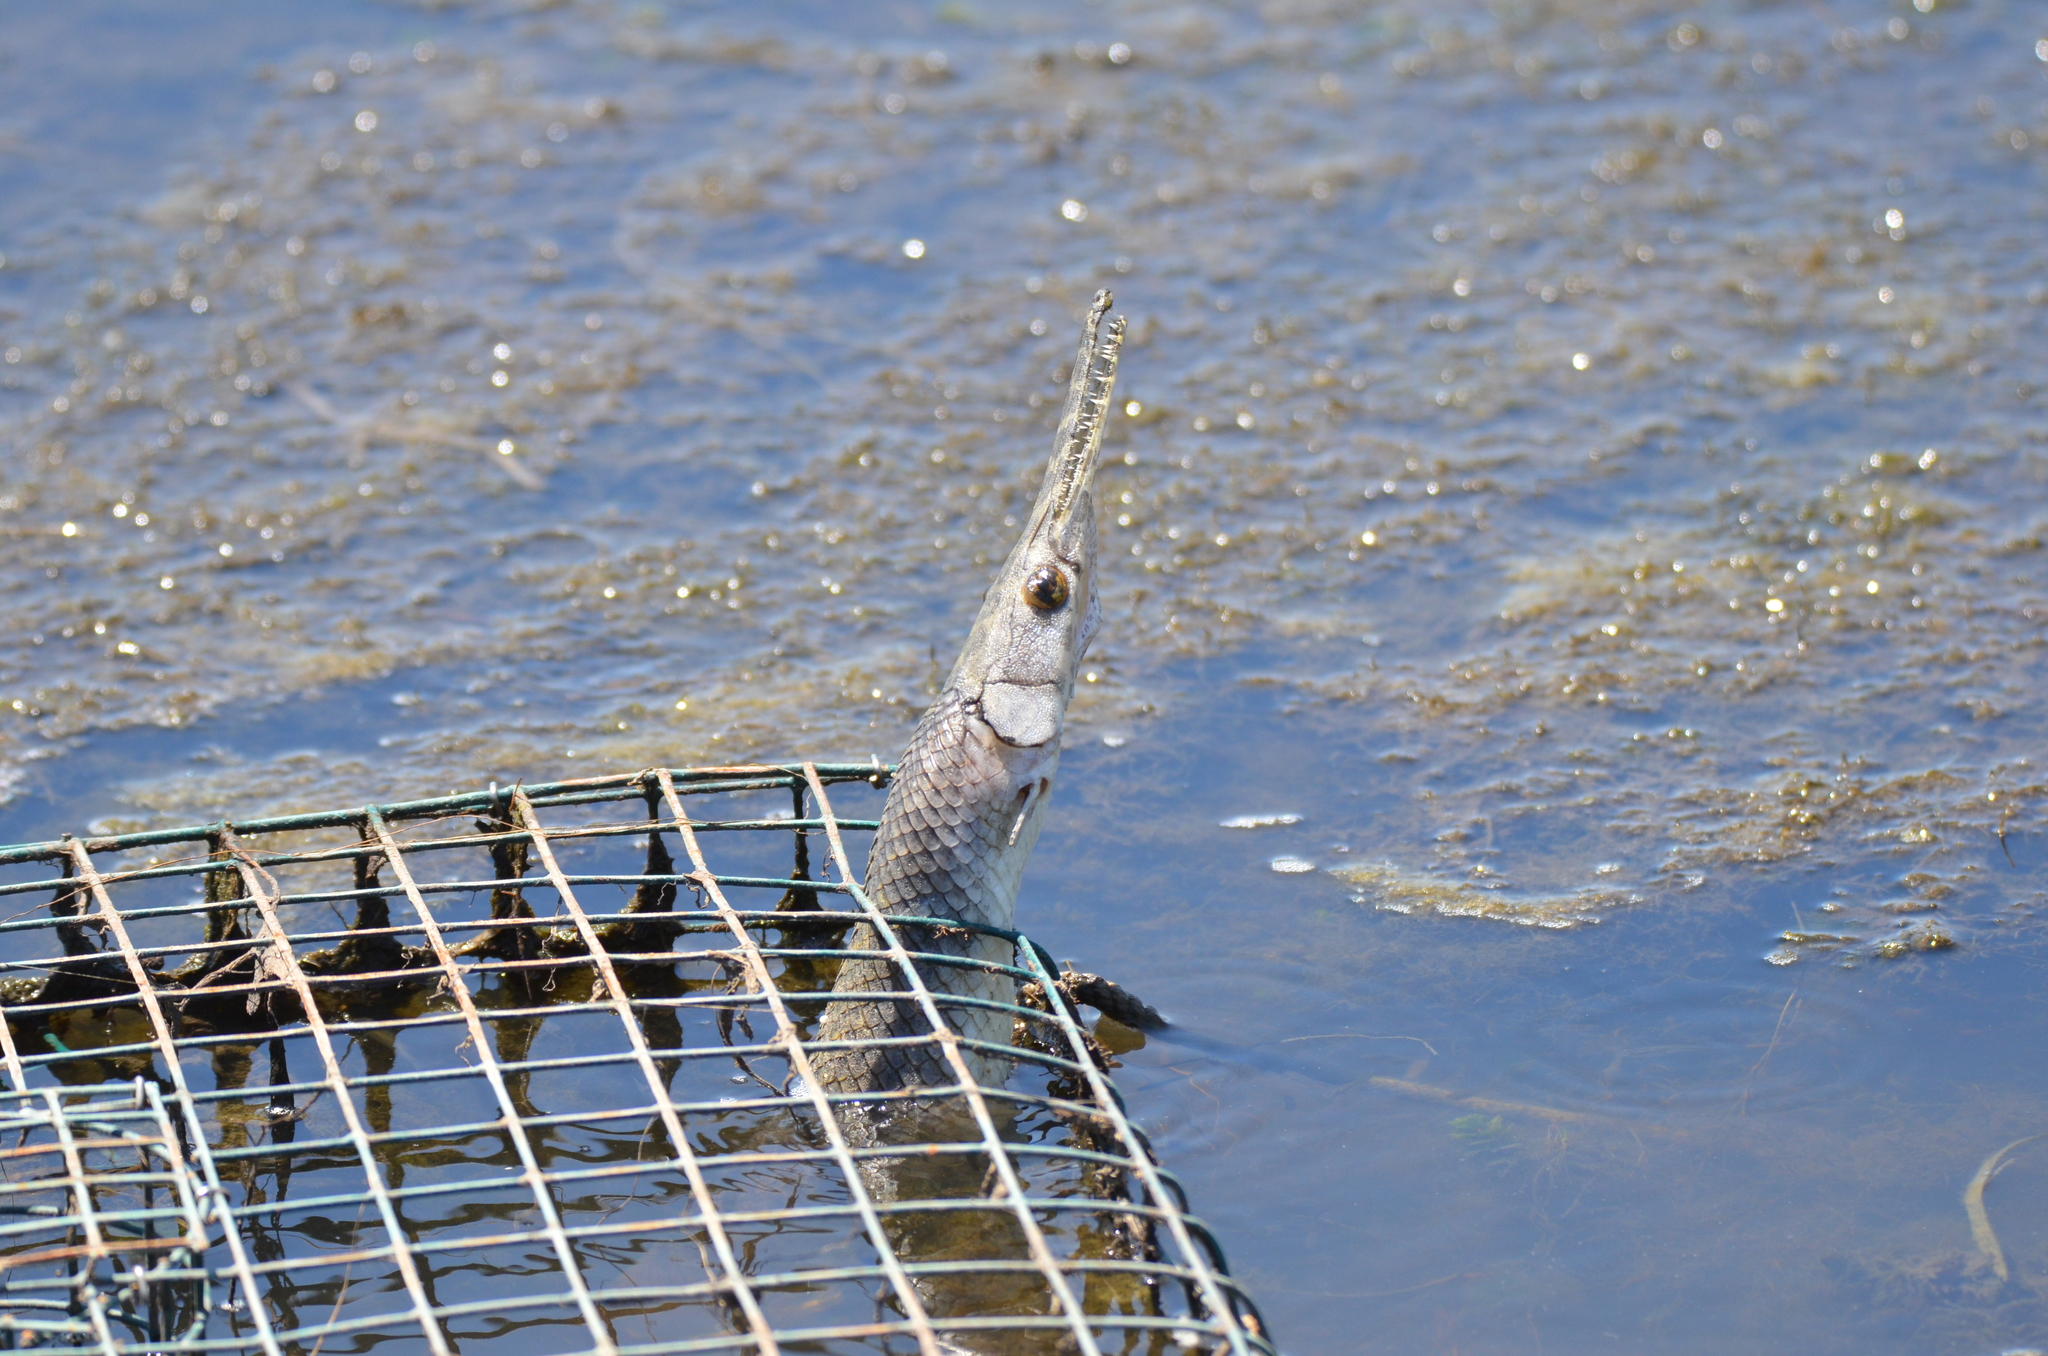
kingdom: Animalia
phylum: Chordata
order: Lepisosteiformes
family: Lepisosteidae
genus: Lepisosteus
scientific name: Lepisosteus oculatus
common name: Spotted gar
